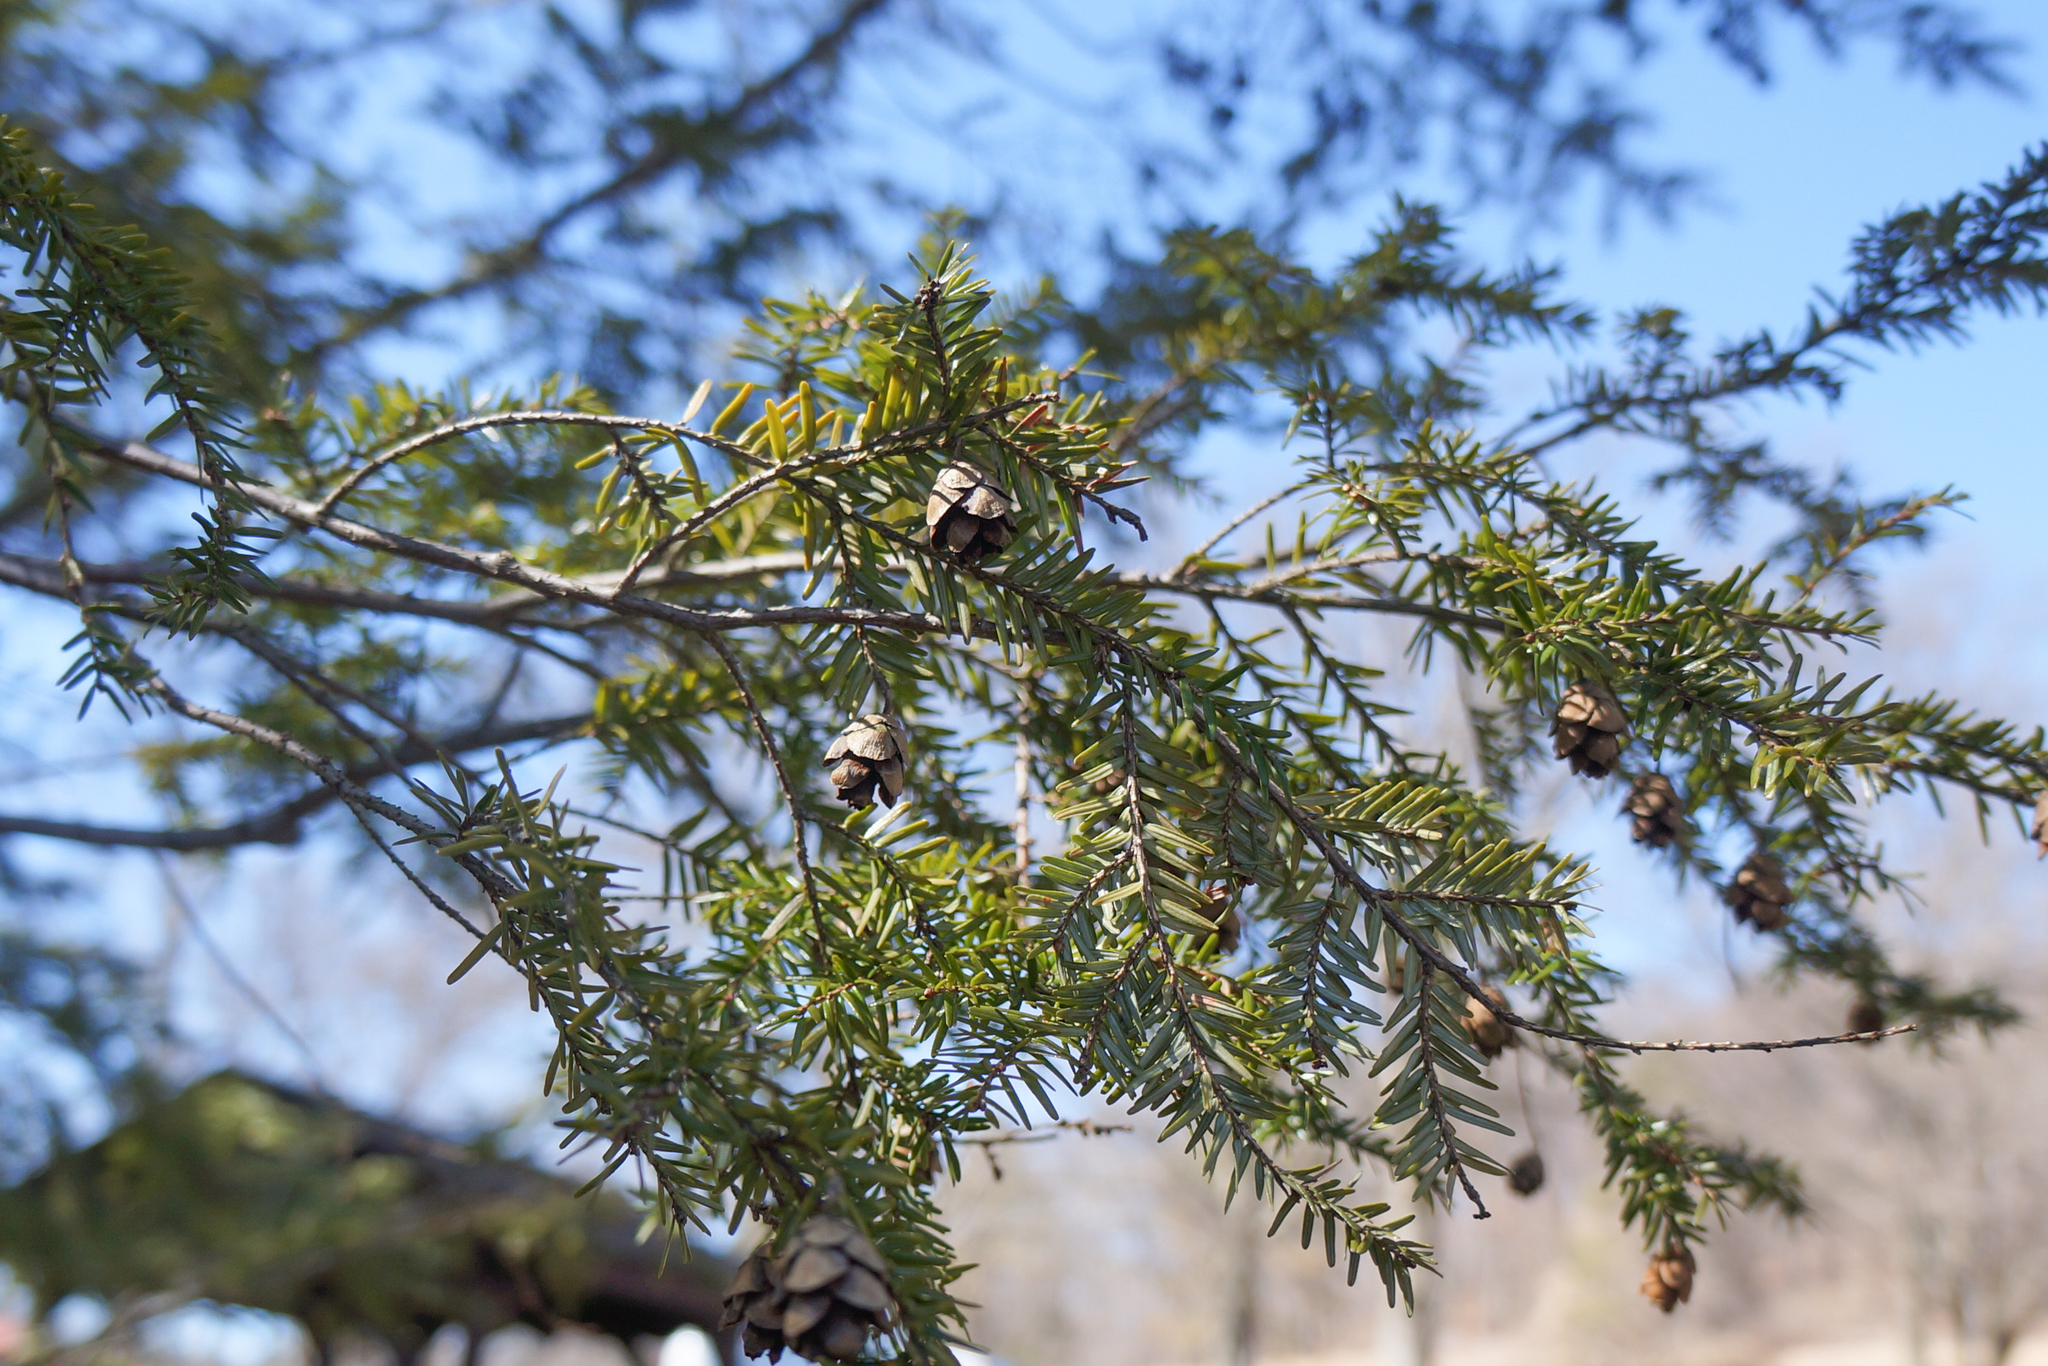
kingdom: Plantae
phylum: Tracheophyta
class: Pinopsida
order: Pinales
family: Pinaceae
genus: Tsuga
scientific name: Tsuga canadensis
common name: Eastern hemlock
